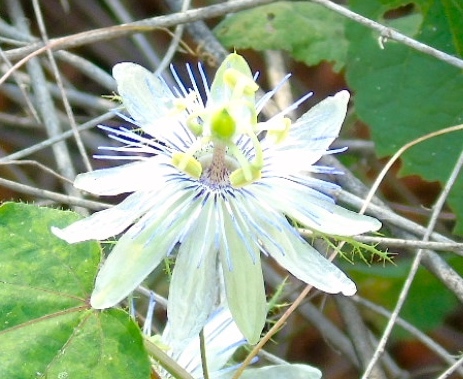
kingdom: Plantae
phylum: Tracheophyta
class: Magnoliopsida
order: Malpighiales
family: Passifloraceae
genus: Passiflora
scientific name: Passiflora foetida
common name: Fetid passionflower
